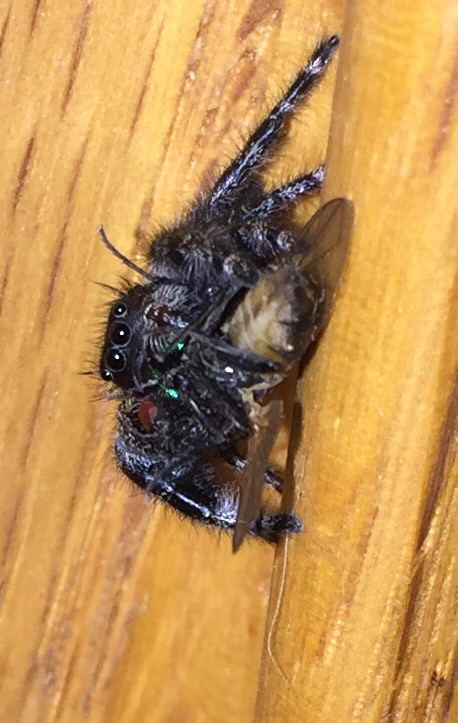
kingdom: Animalia
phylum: Arthropoda
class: Arachnida
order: Araneae
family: Salticidae
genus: Phidippus
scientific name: Phidippus audax
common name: Bold jumper
